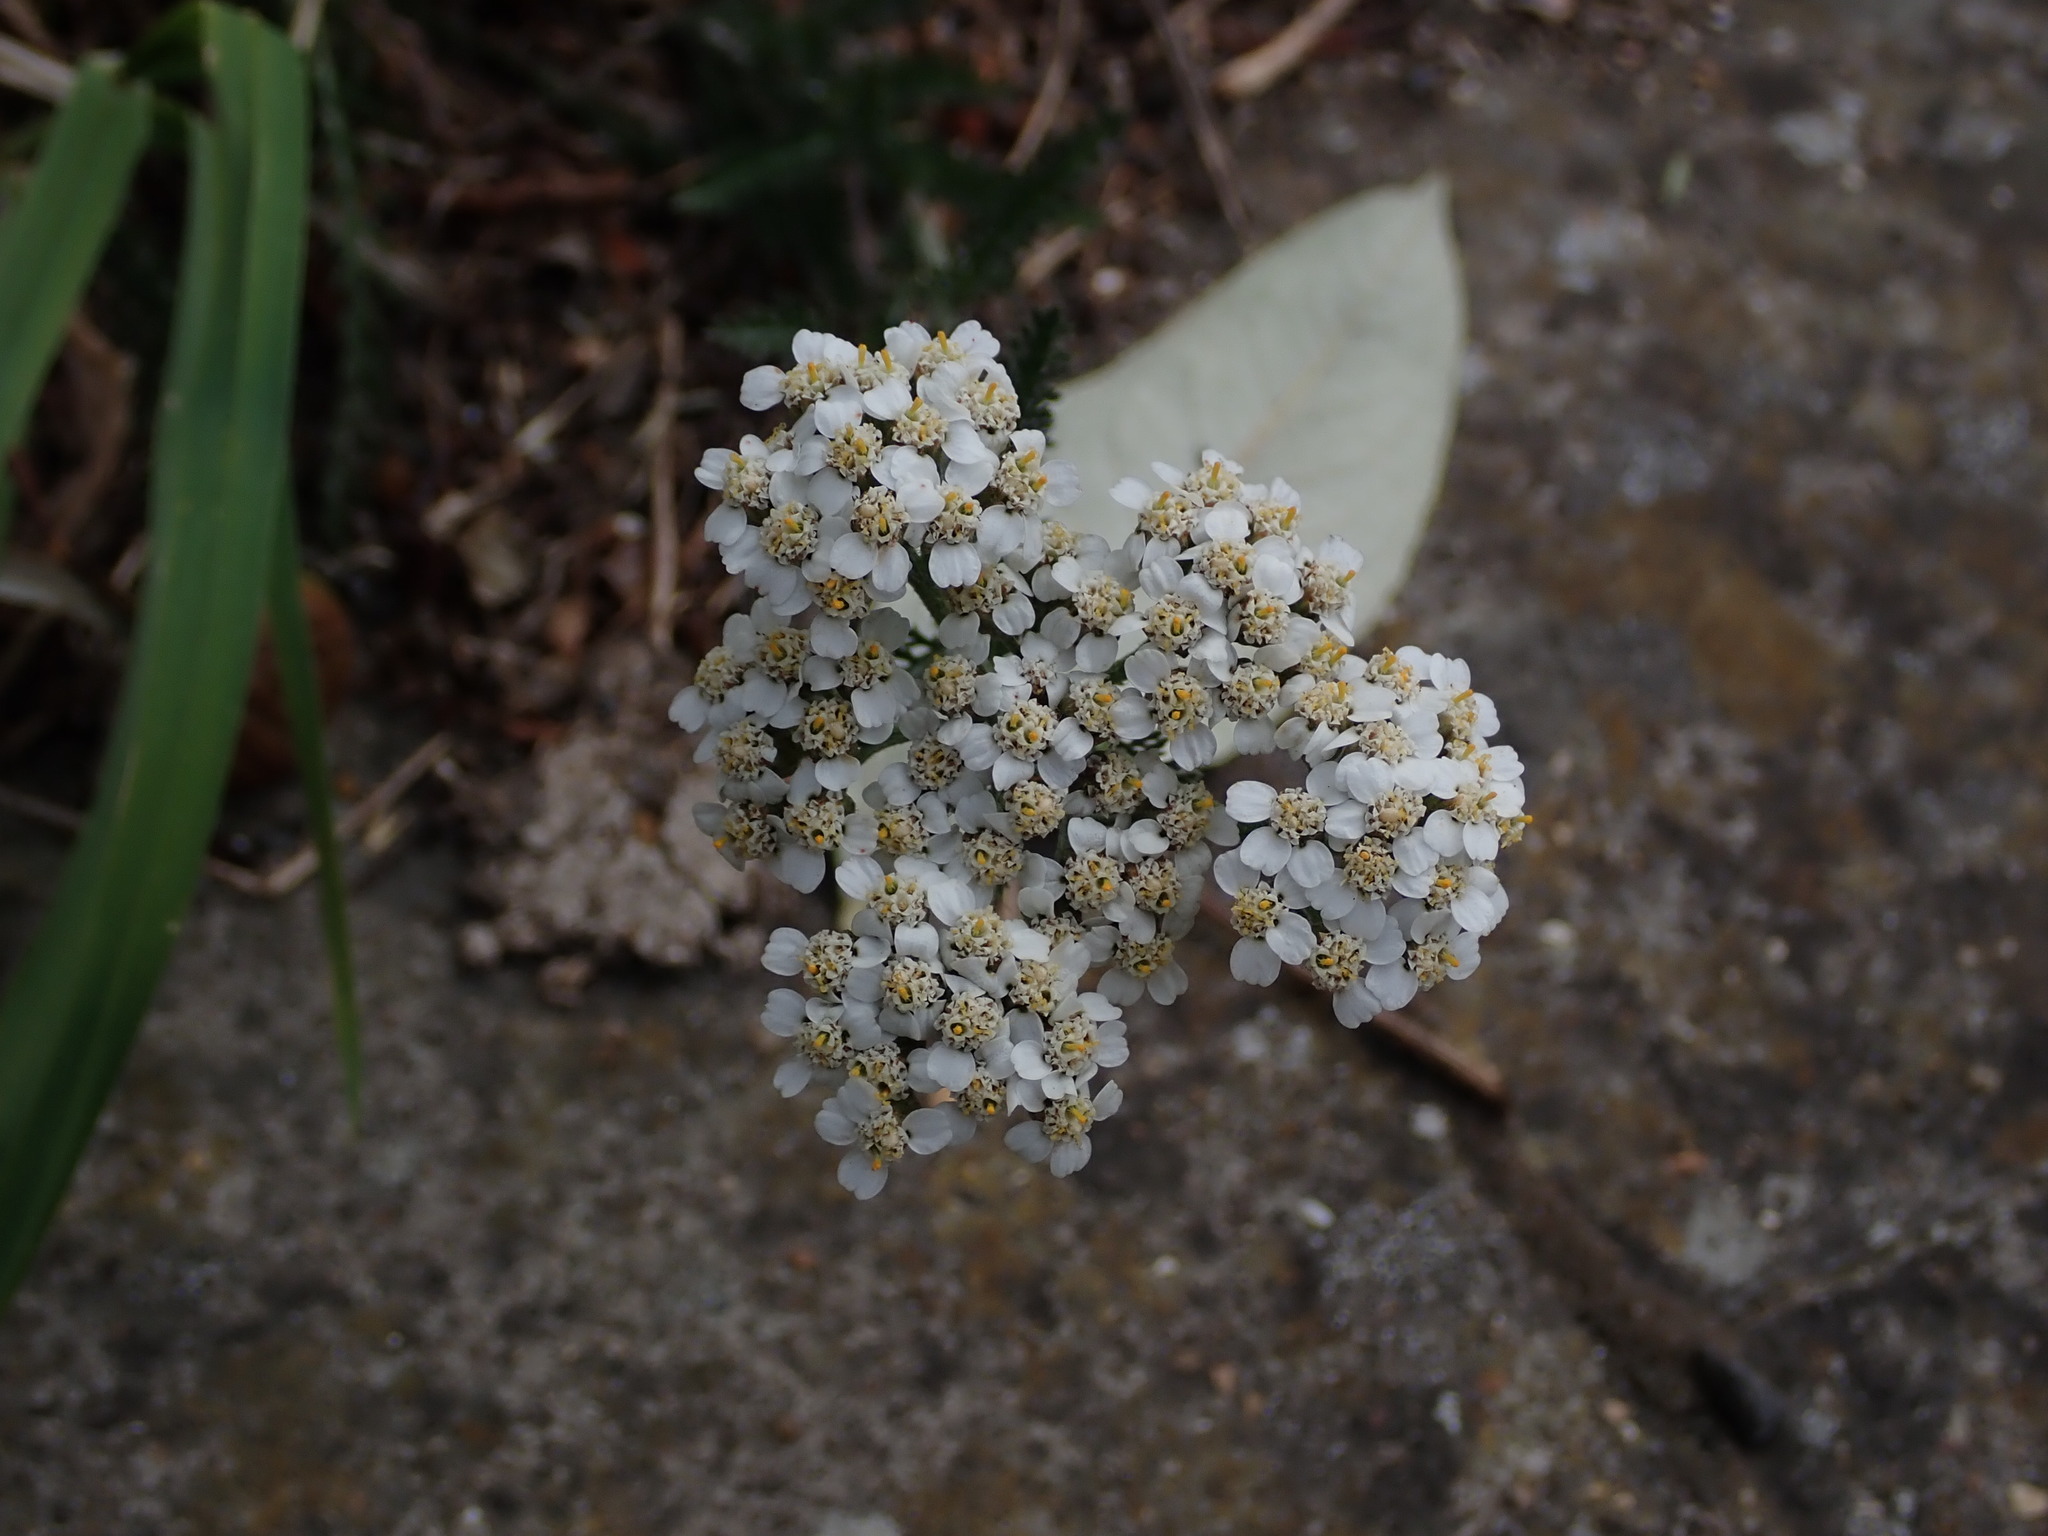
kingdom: Plantae
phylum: Tracheophyta
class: Magnoliopsida
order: Asterales
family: Asteraceae
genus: Achillea
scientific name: Achillea millefolium
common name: Yarrow
